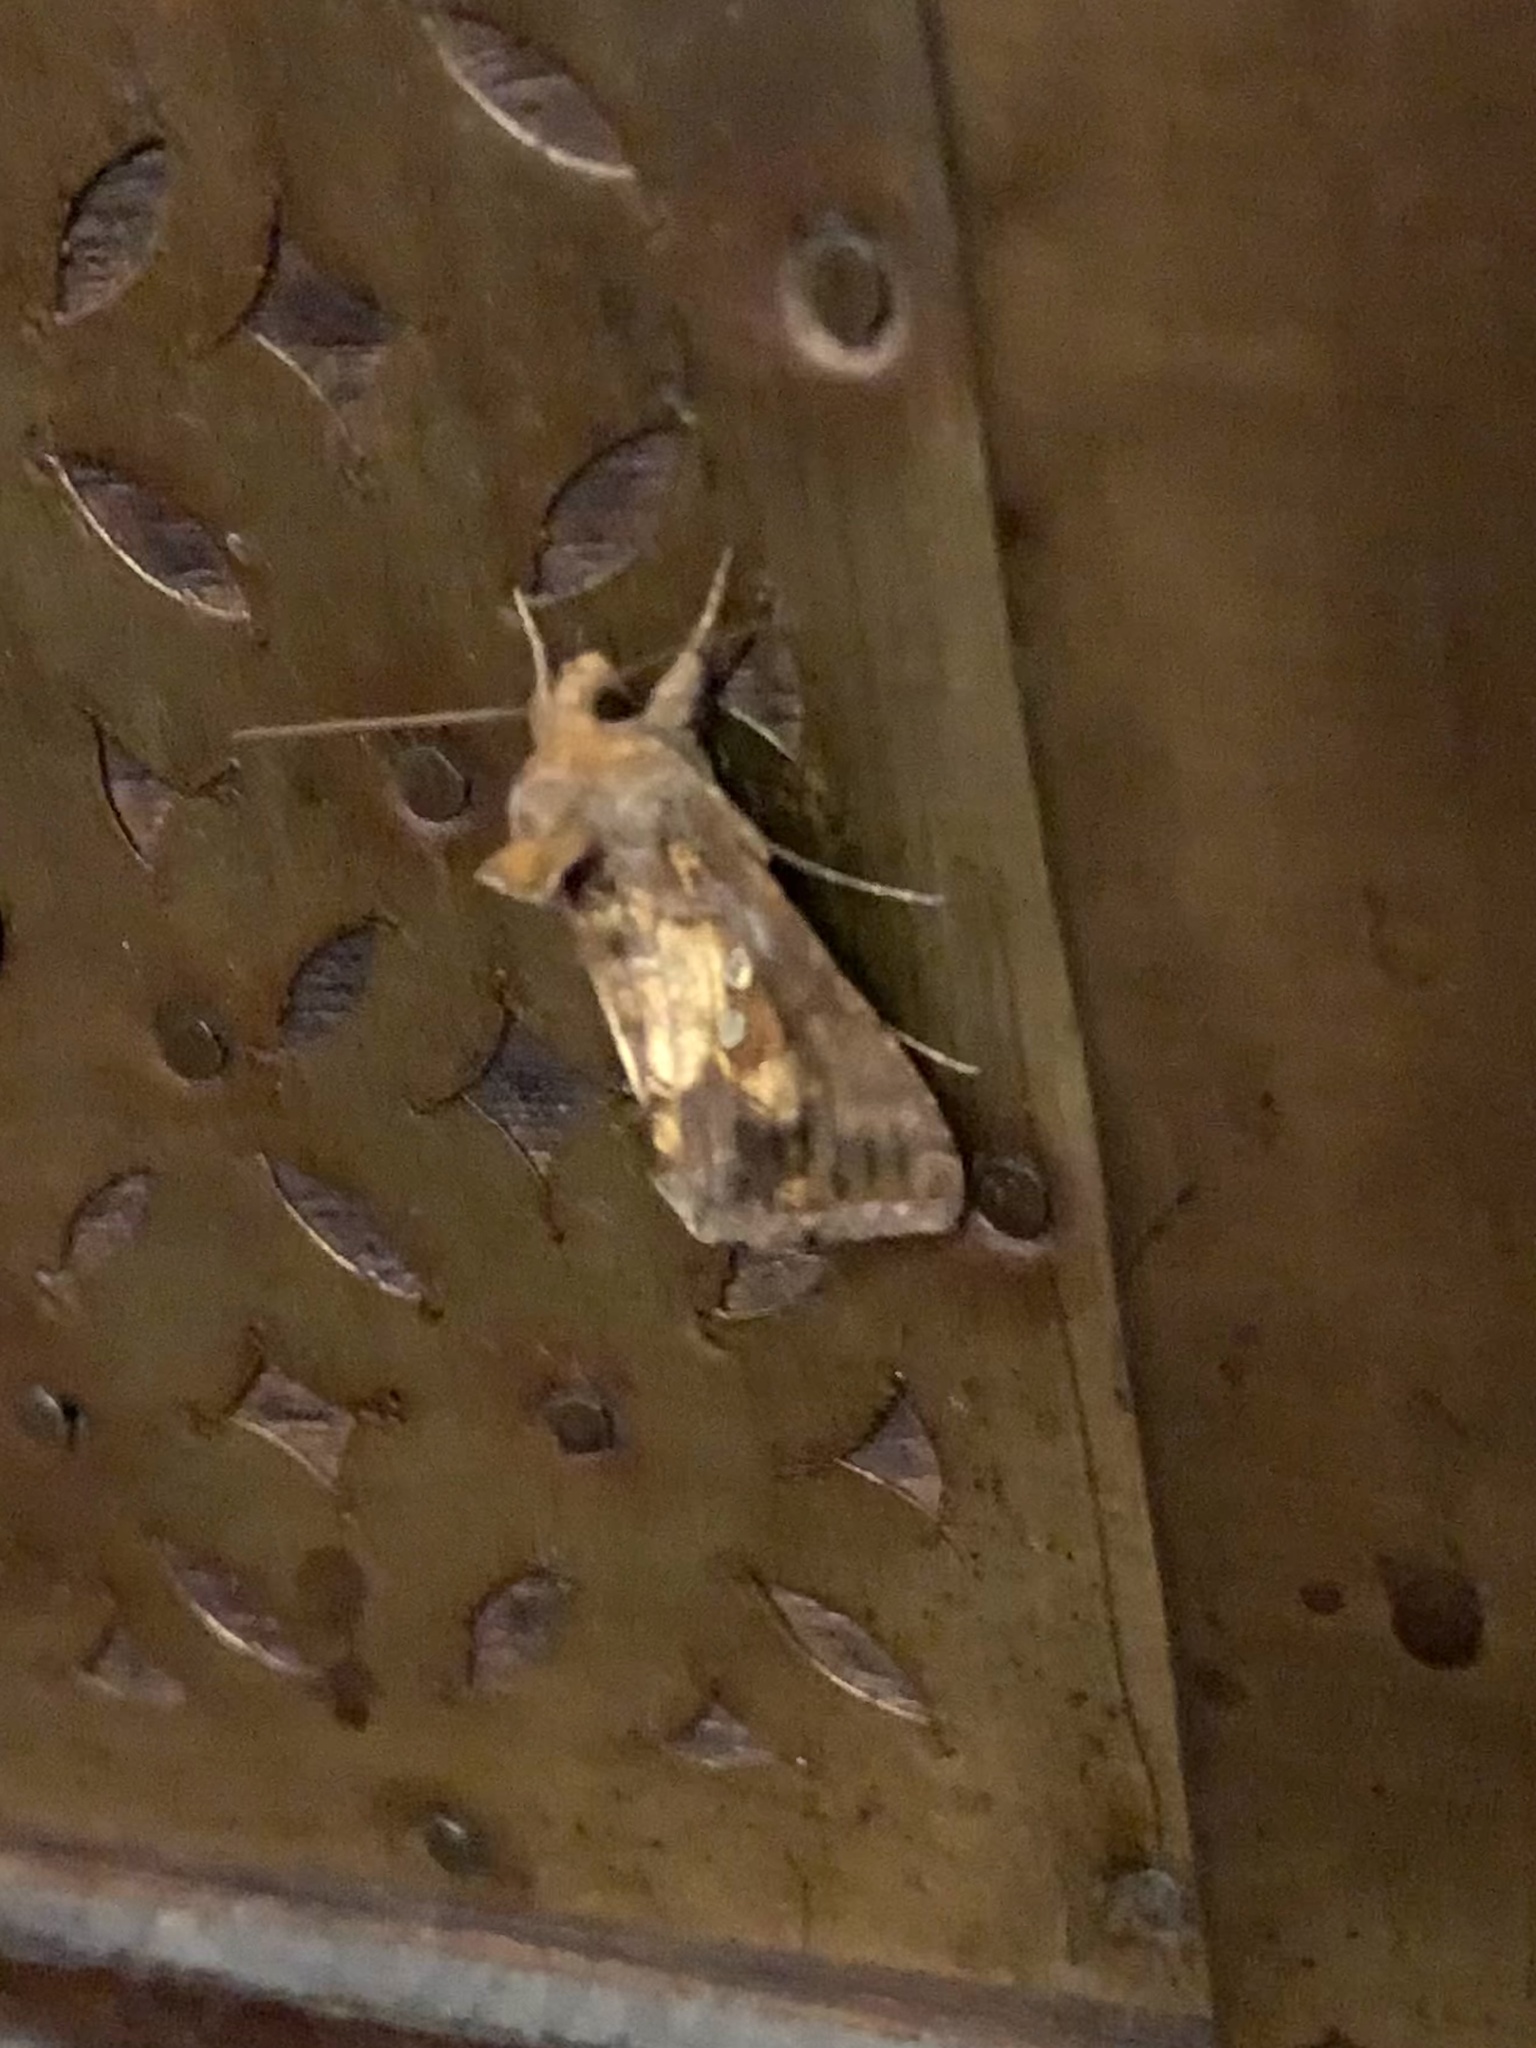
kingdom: Animalia
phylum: Arthropoda
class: Insecta
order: Lepidoptera
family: Noctuidae
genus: Chrysodeixis
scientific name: Chrysodeixis chalcites
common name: Golden twin-spot
